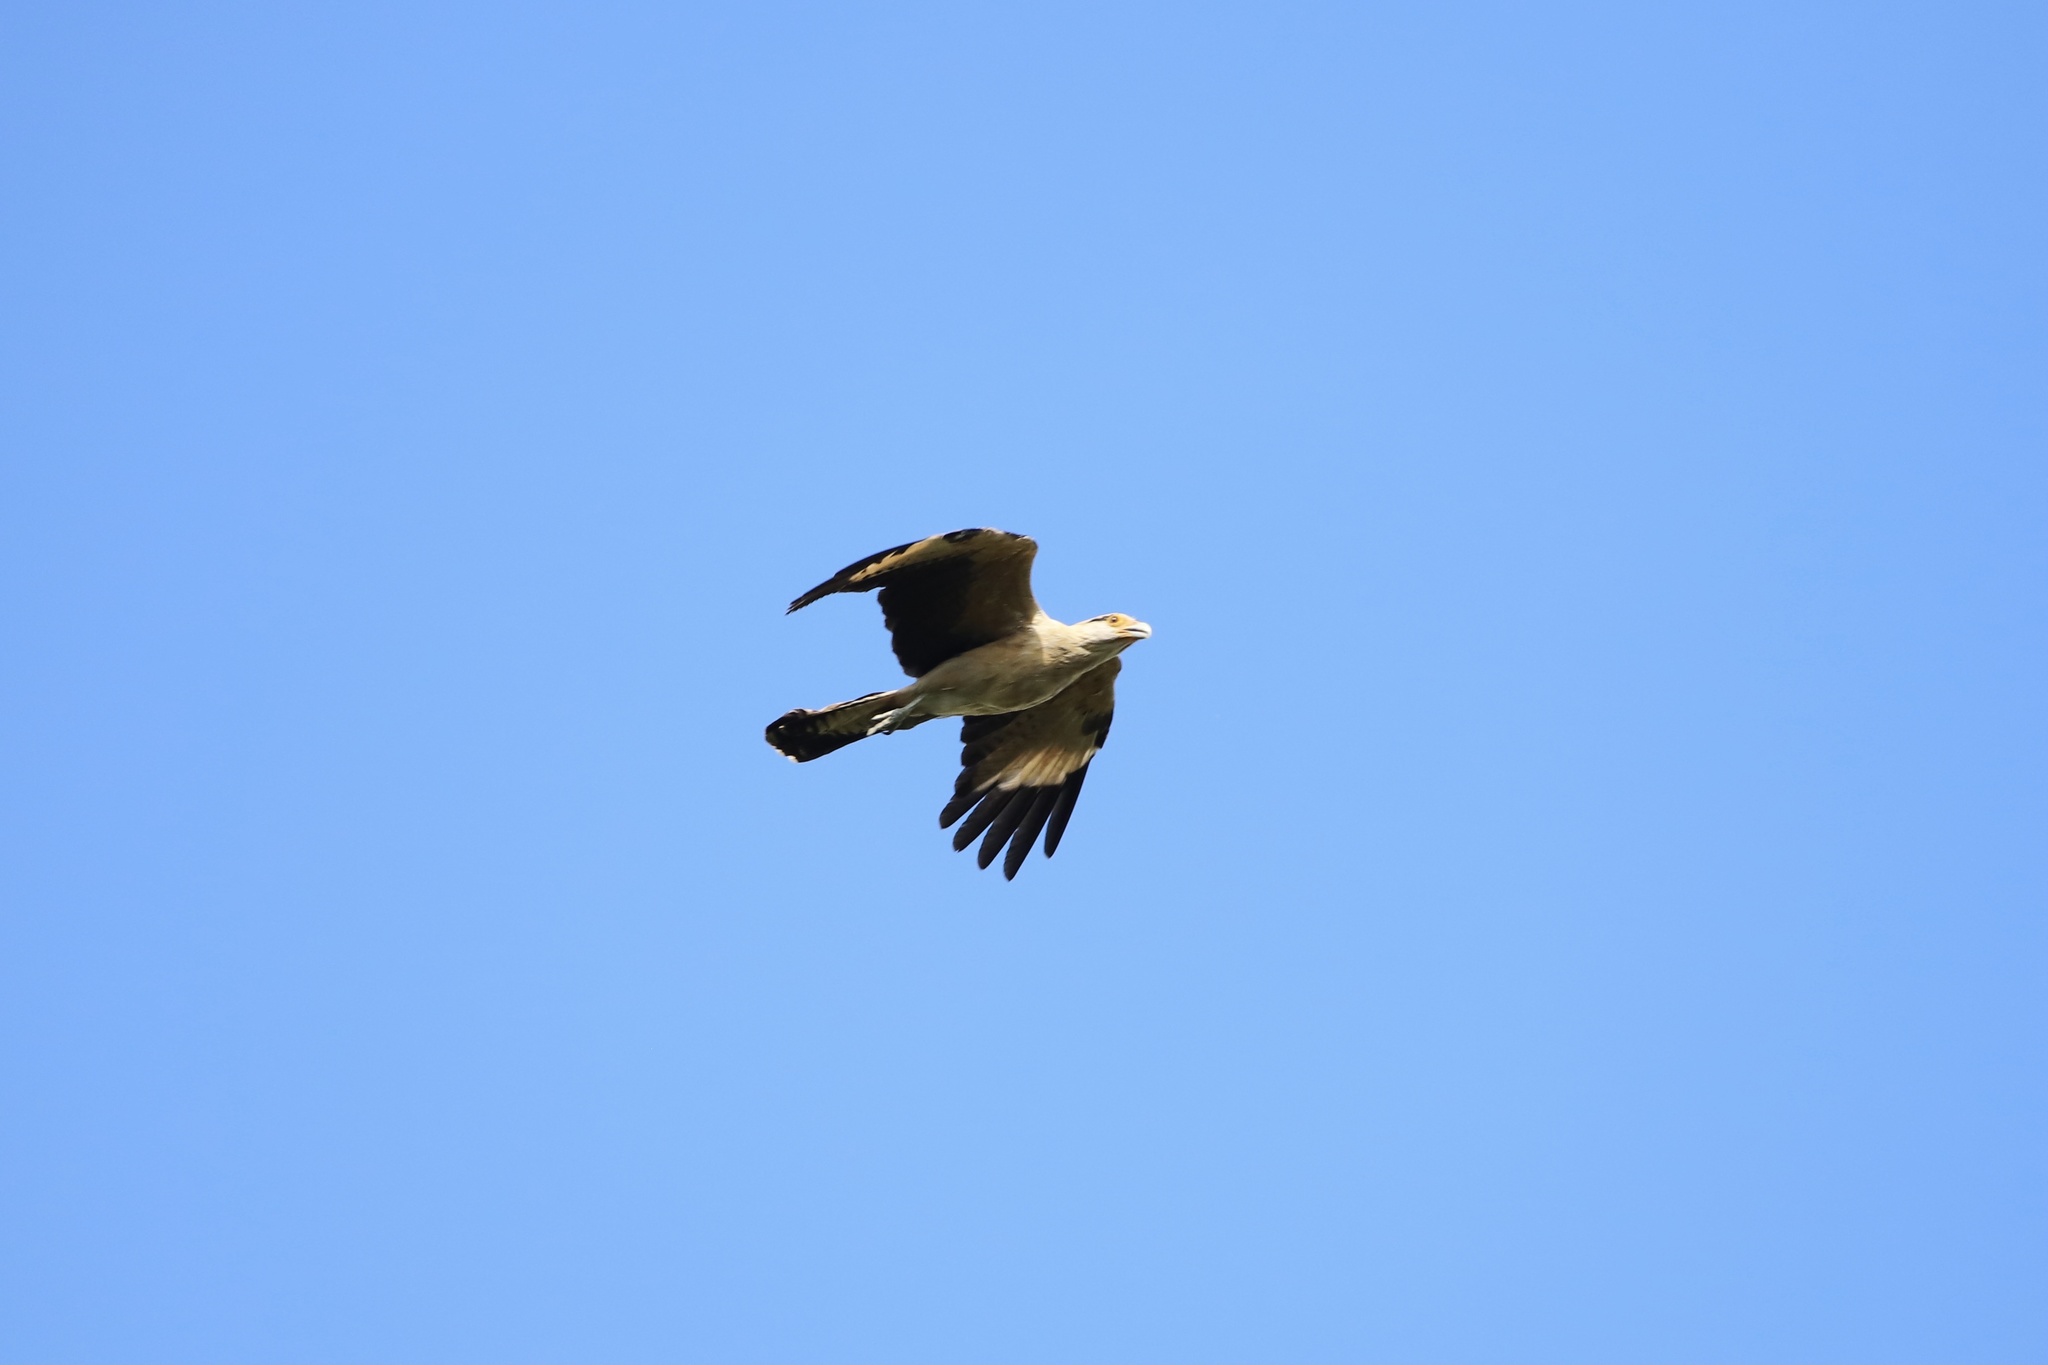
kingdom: Animalia
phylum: Chordata
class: Aves
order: Falconiformes
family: Falconidae
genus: Daptrius
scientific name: Daptrius
